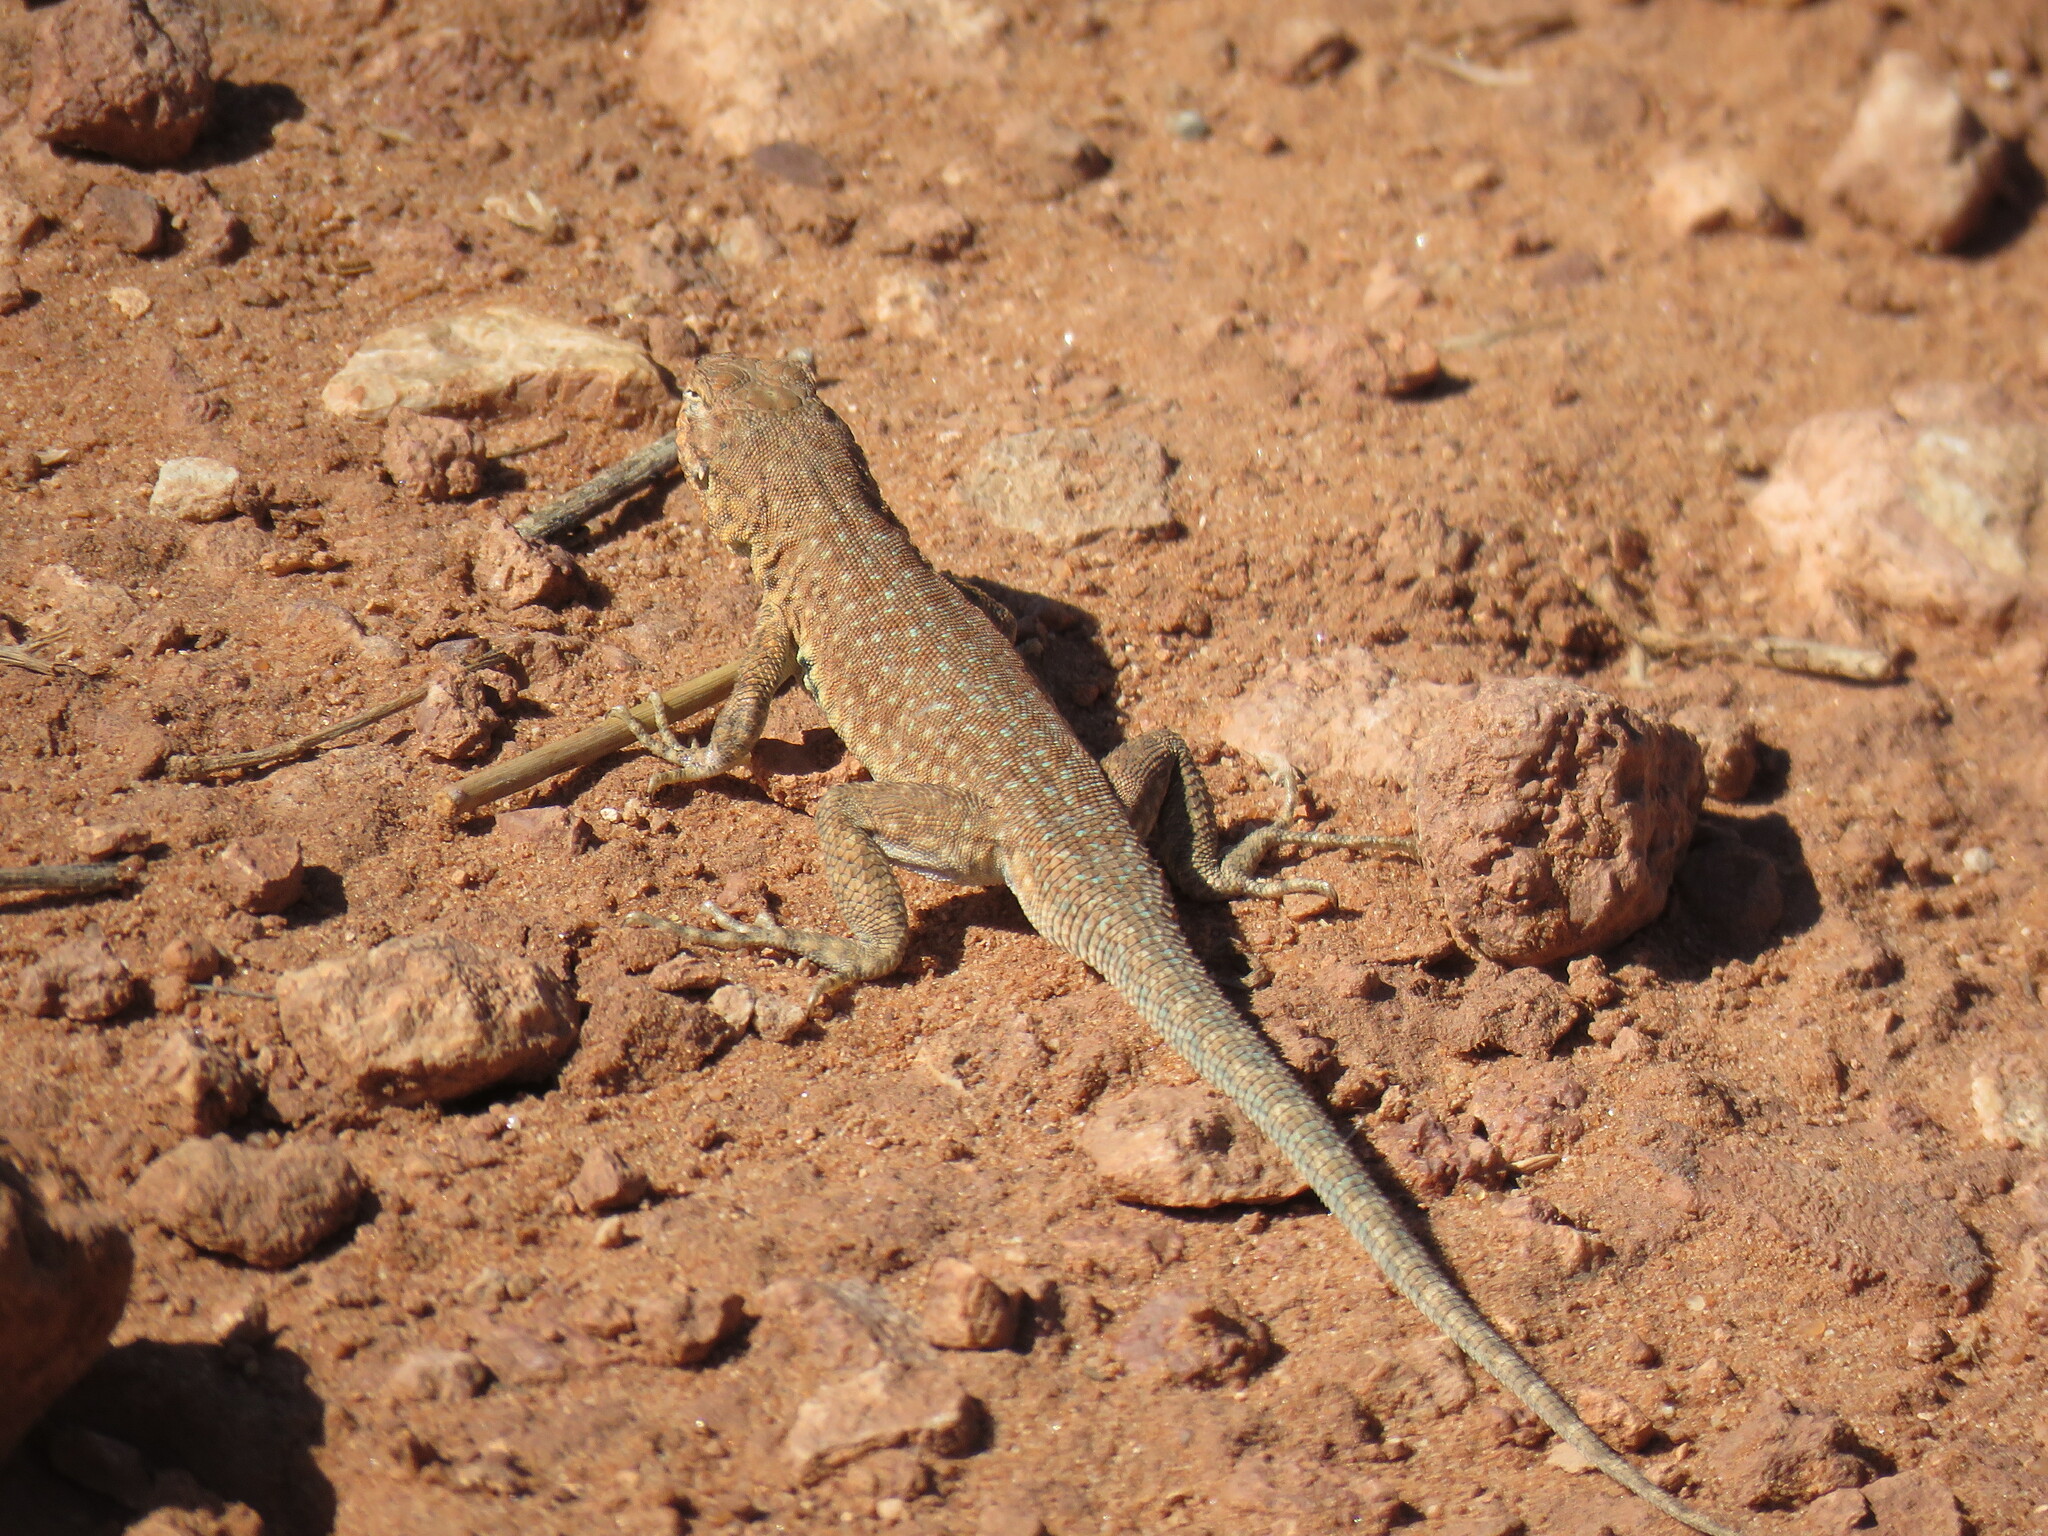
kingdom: Animalia
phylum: Chordata
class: Squamata
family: Phrynosomatidae
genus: Uta
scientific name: Uta stansburiana
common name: Side-blotched lizard
